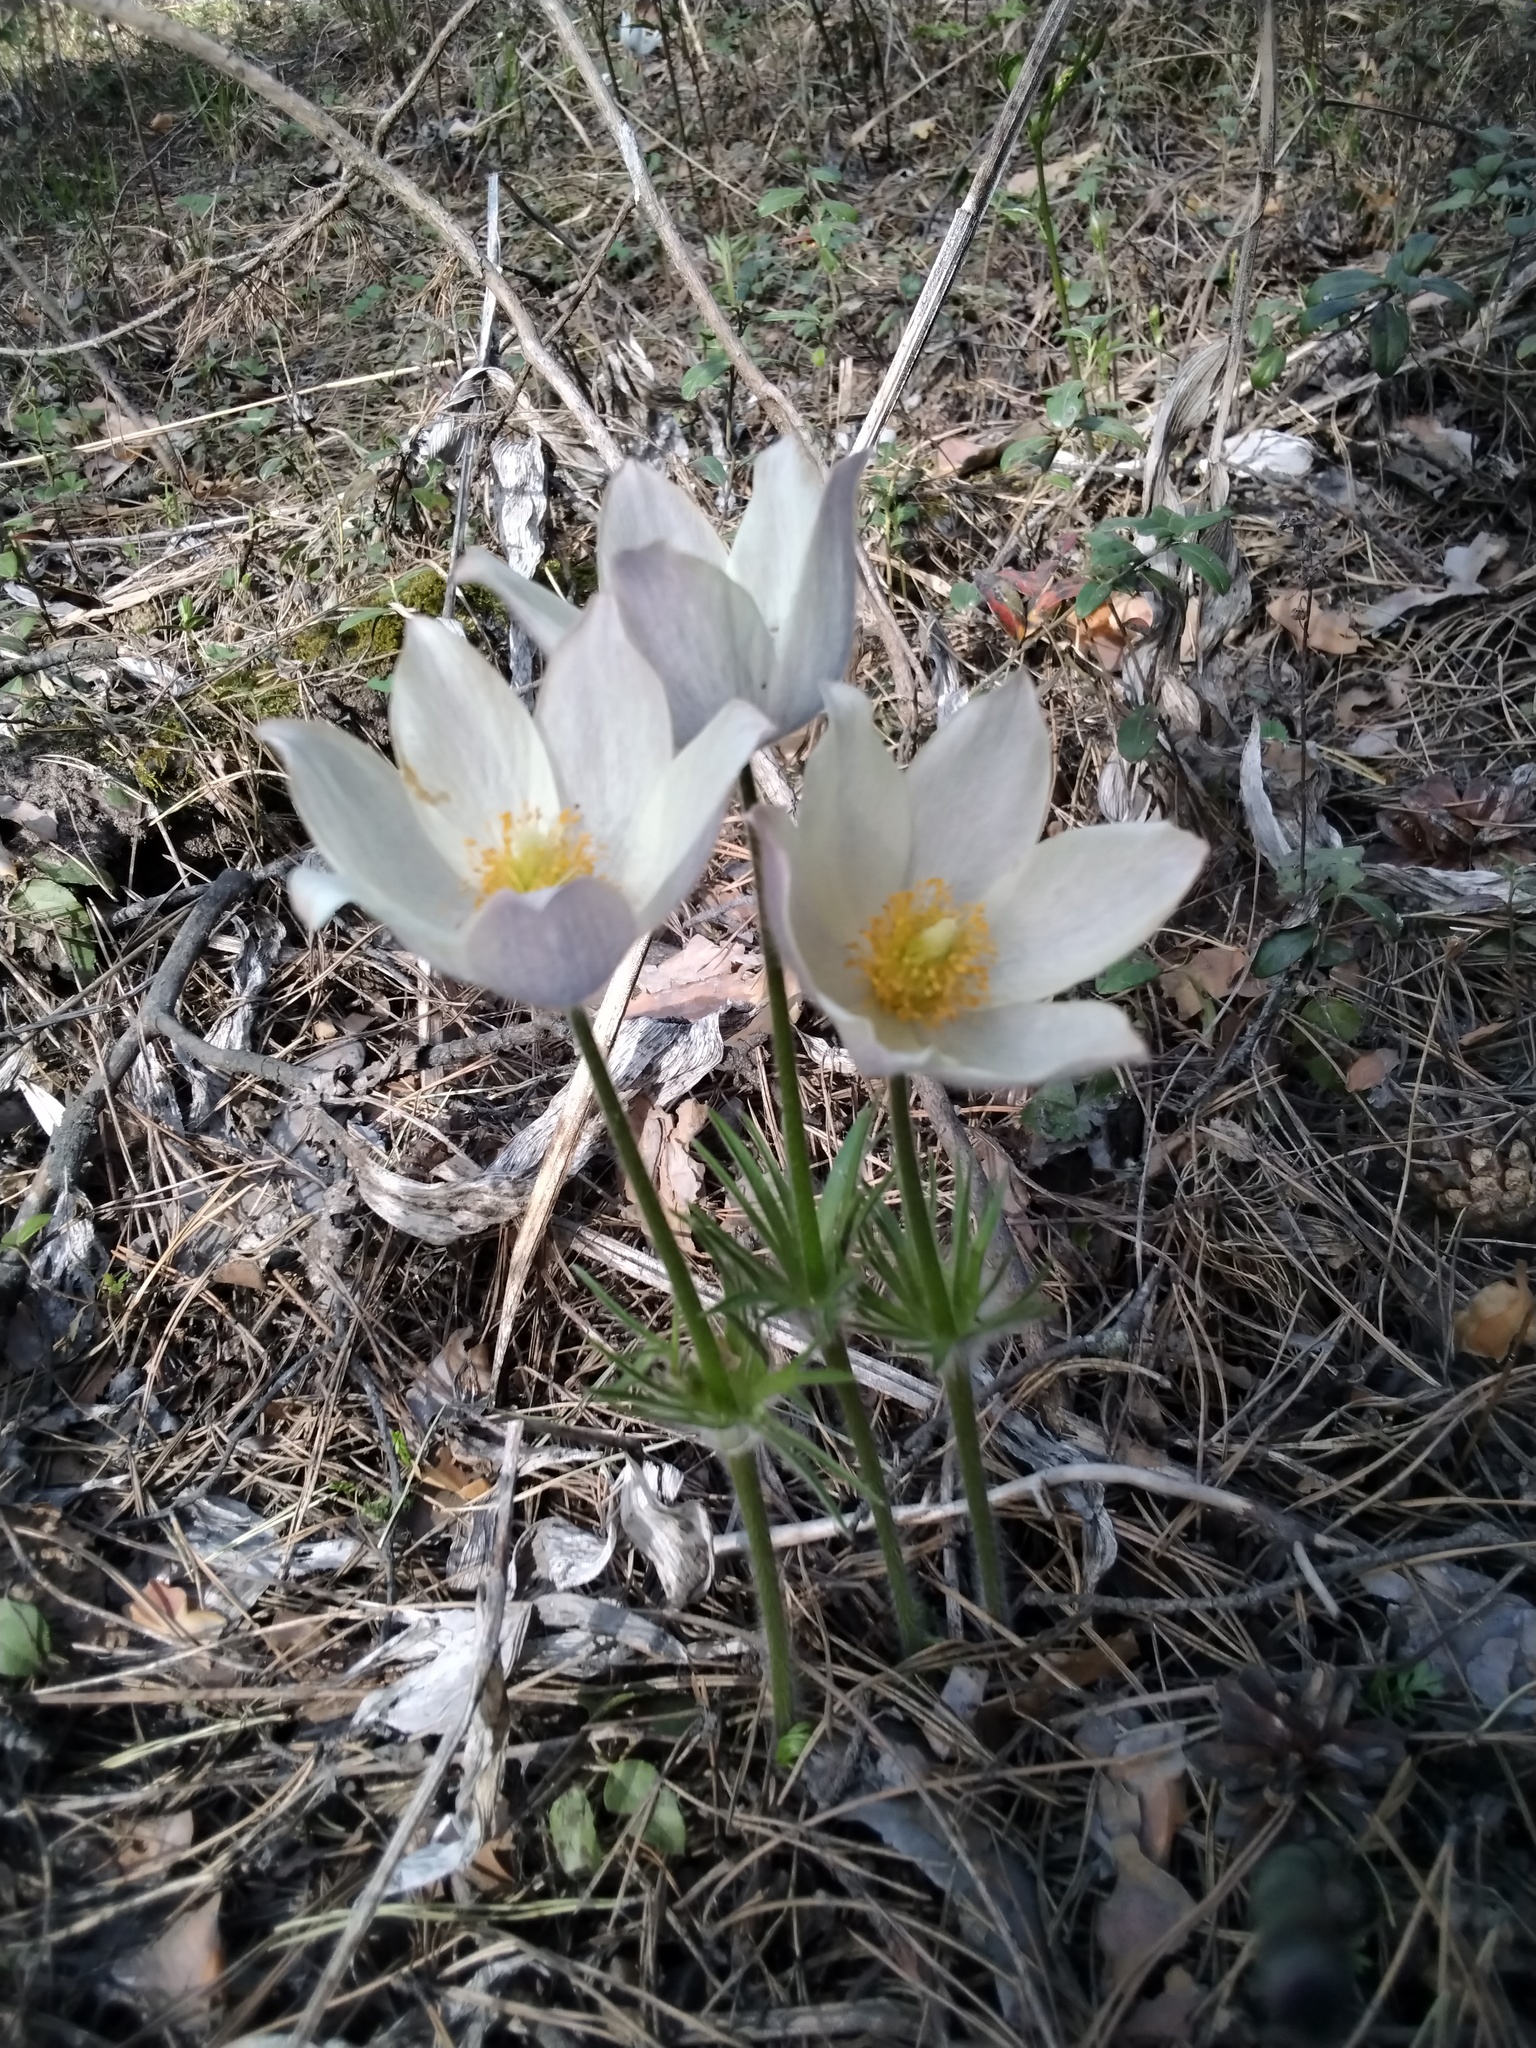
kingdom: Plantae
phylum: Tracheophyta
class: Magnoliopsida
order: Ranunculales
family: Ranunculaceae
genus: Pulsatilla
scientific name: Pulsatilla patens
